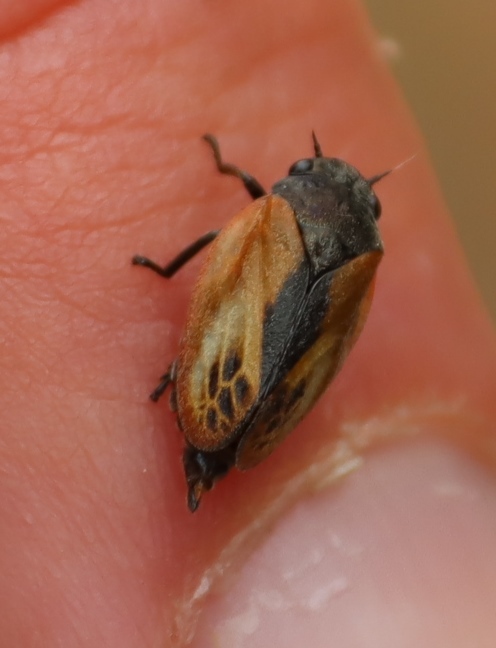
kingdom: Animalia
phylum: Arthropoda
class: Insecta
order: Hemiptera
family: Cercopidae
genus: Rhinaulax
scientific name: Rhinaulax analis
